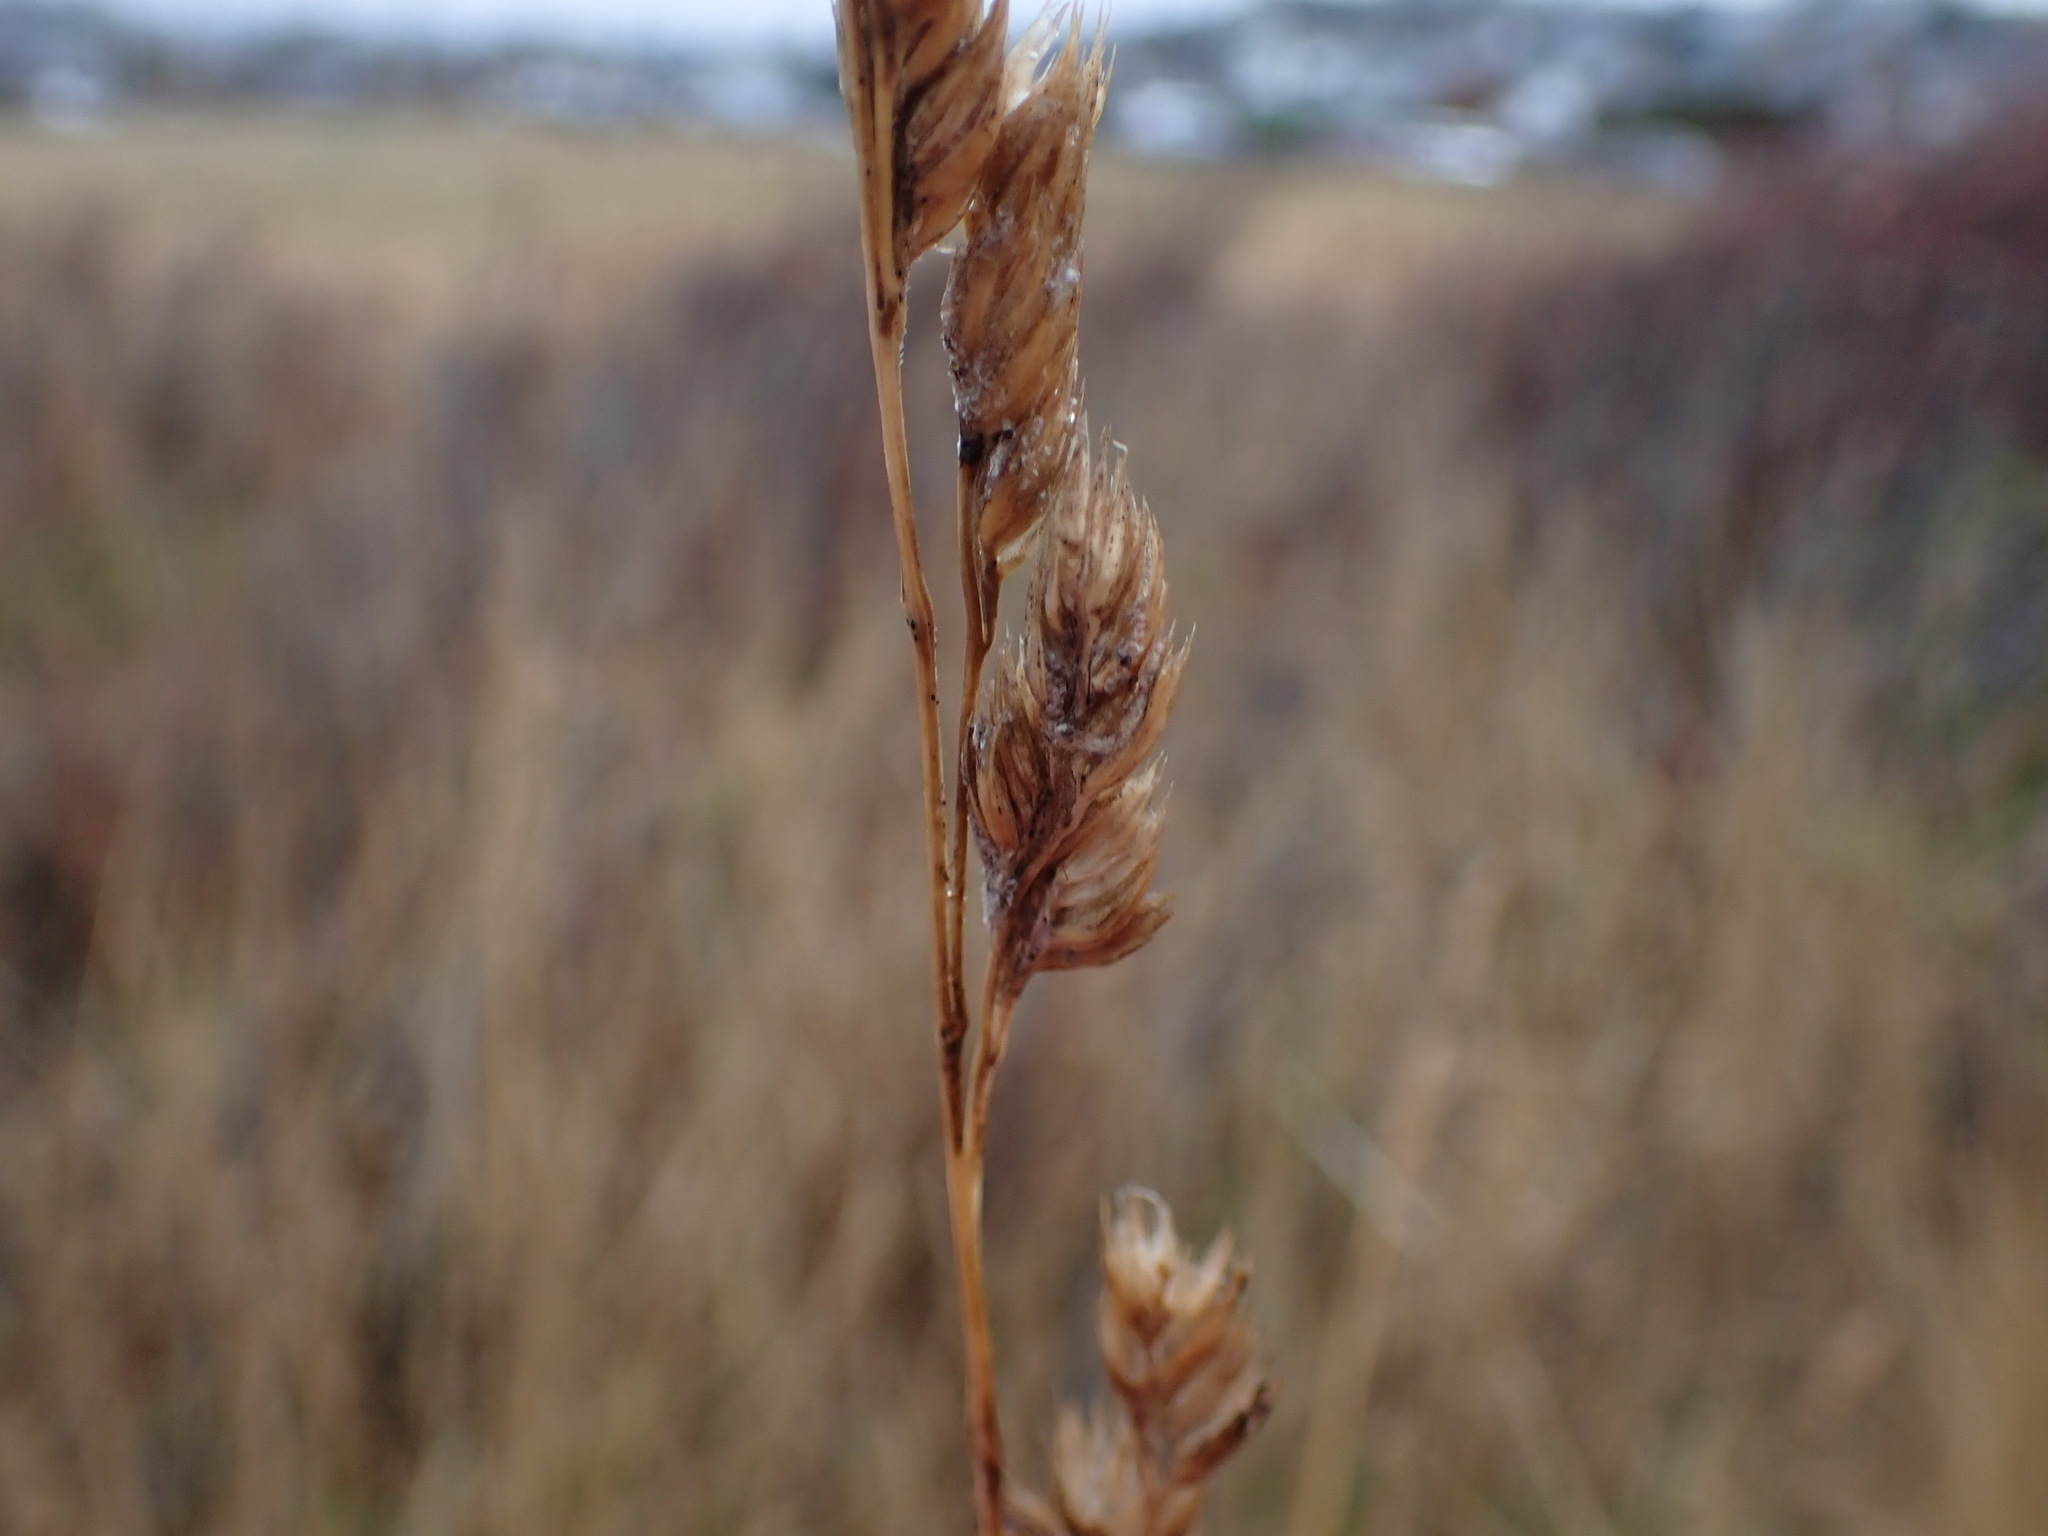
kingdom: Plantae
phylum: Tracheophyta
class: Liliopsida
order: Poales
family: Poaceae
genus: Dactylis
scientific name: Dactylis glomerata
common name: Orchardgrass
